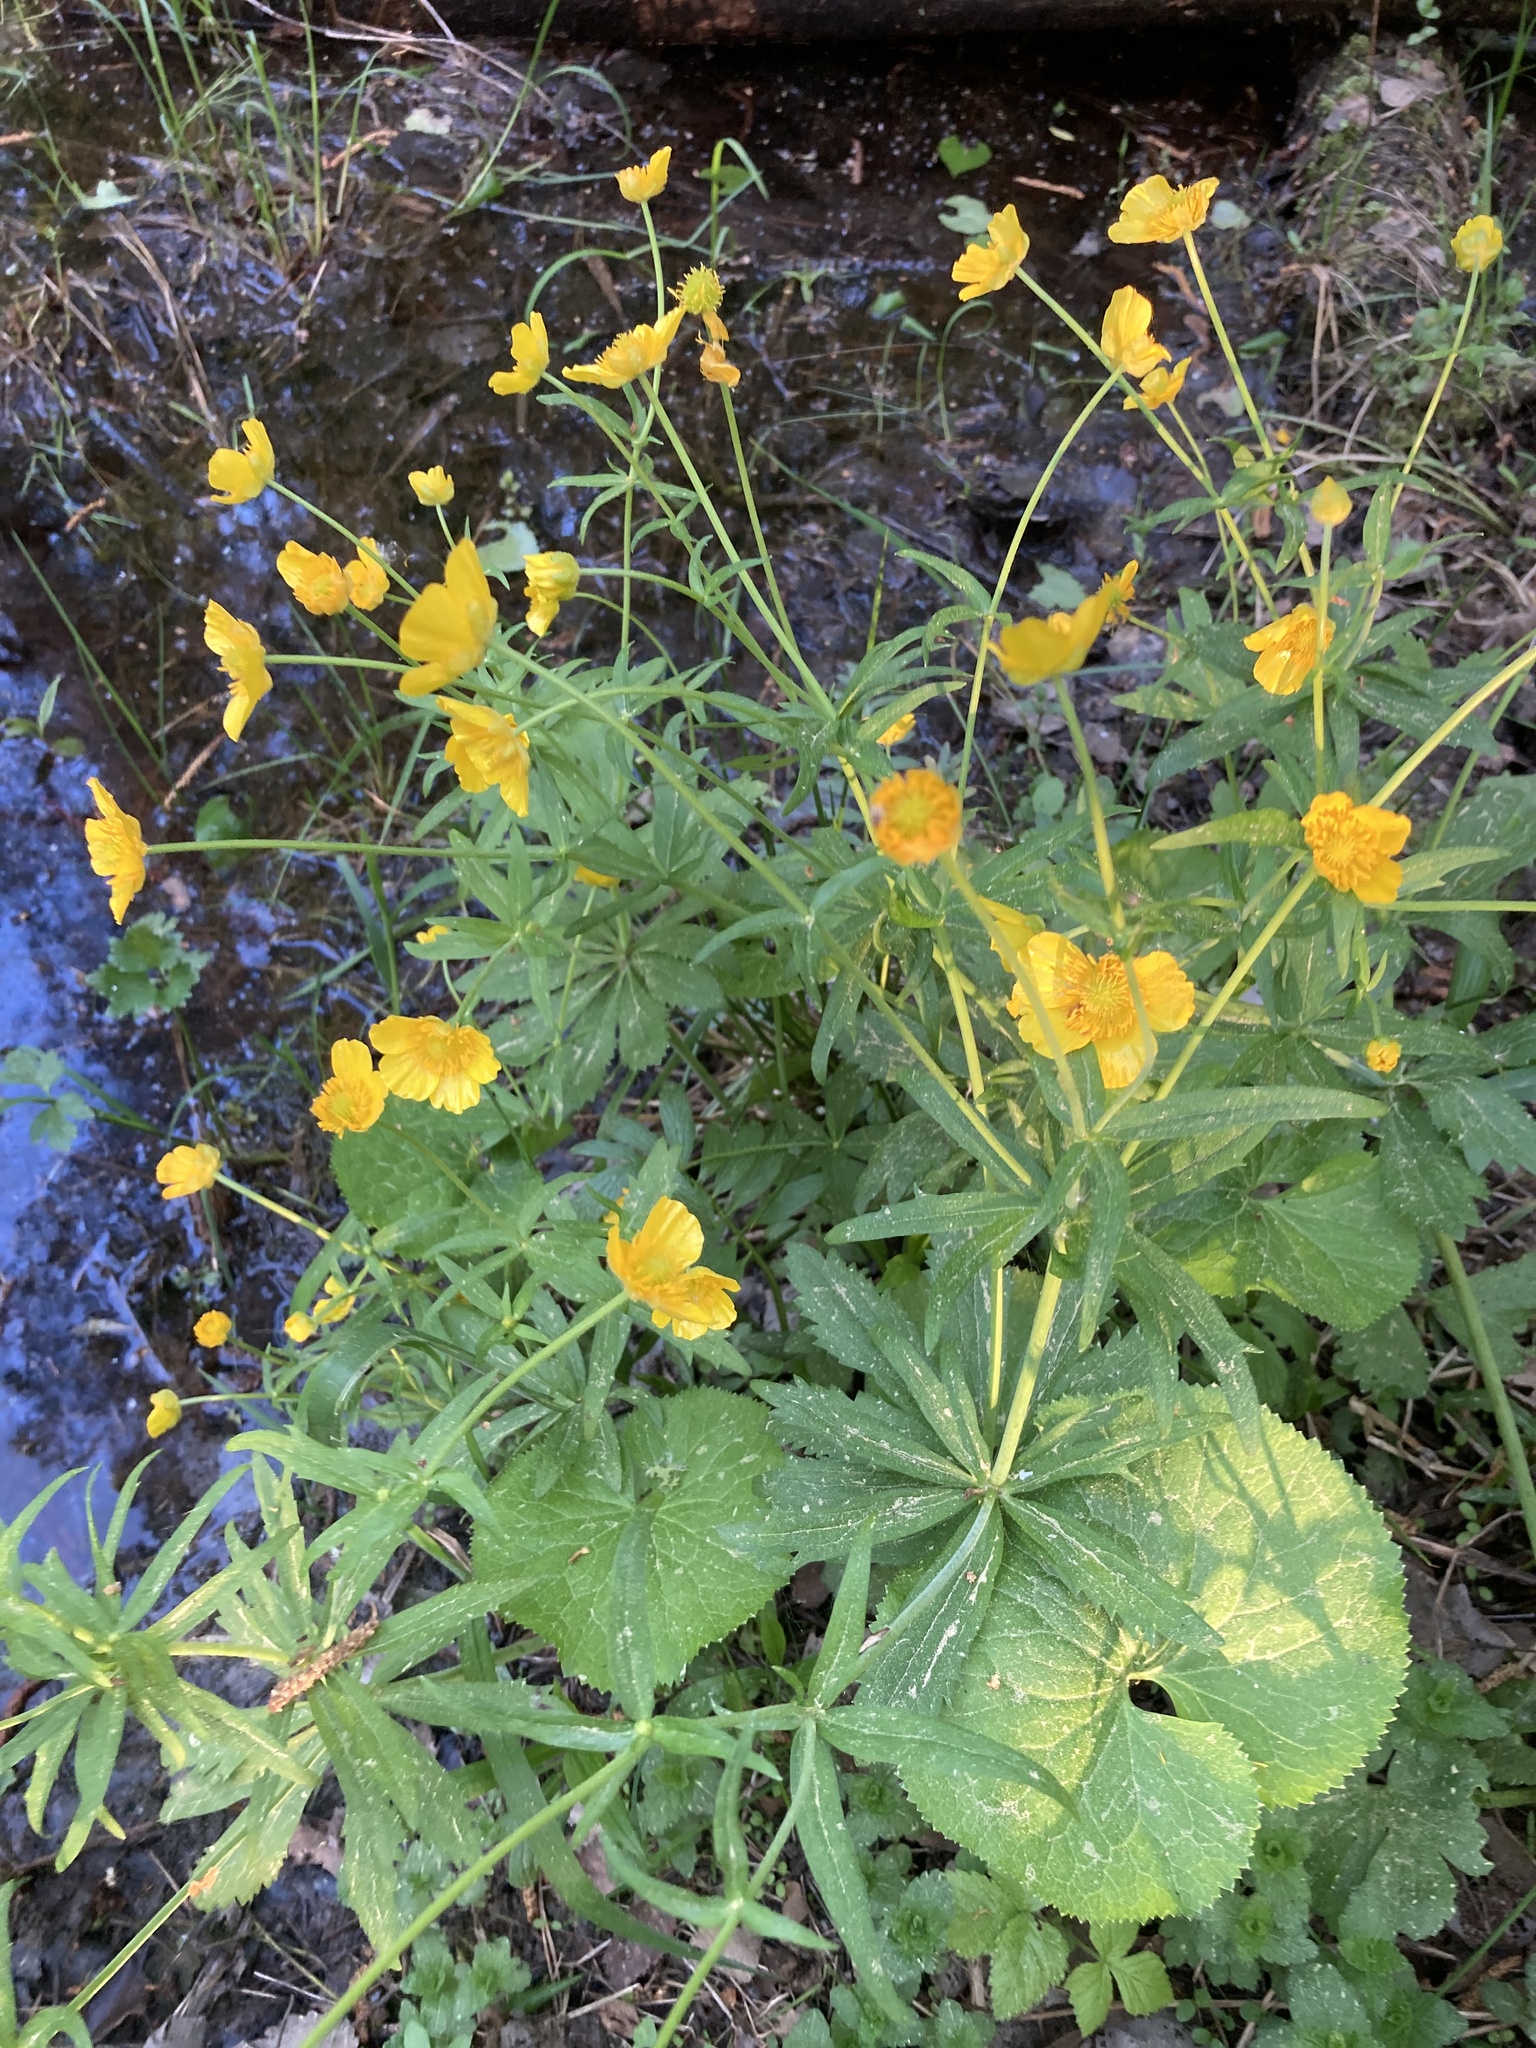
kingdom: Plantae
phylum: Tracheophyta
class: Magnoliopsida
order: Ranunculales
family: Ranunculaceae
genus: Ranunculus
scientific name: Ranunculus cassubicus
